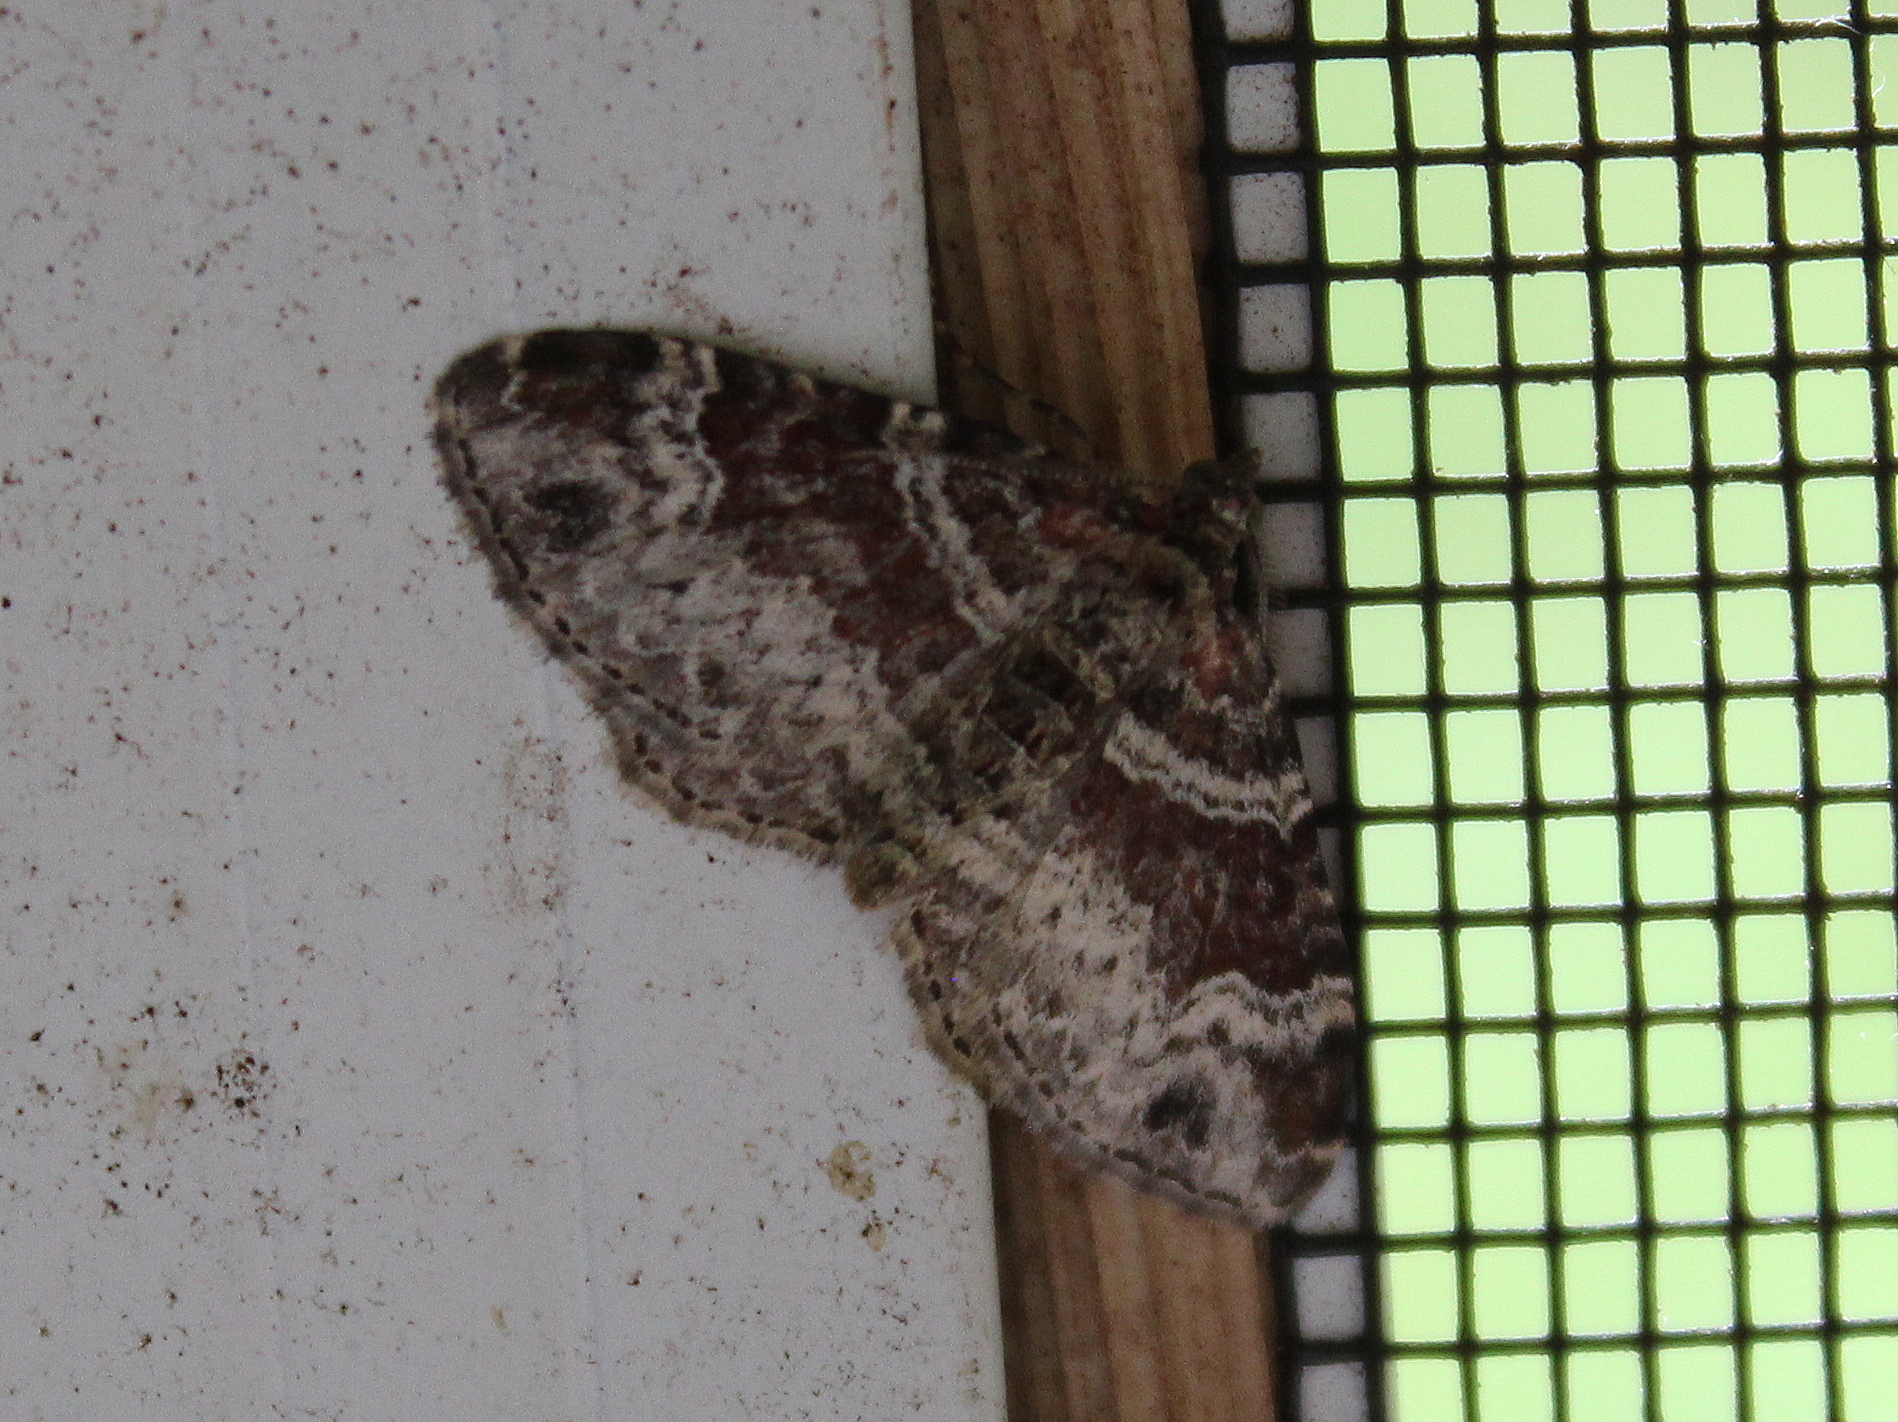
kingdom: Animalia
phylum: Arthropoda
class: Insecta
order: Lepidoptera
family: Geometridae
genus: Xanthorhoe
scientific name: Xanthorhoe ferrugata
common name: Dark-barred twin-spot carpet
